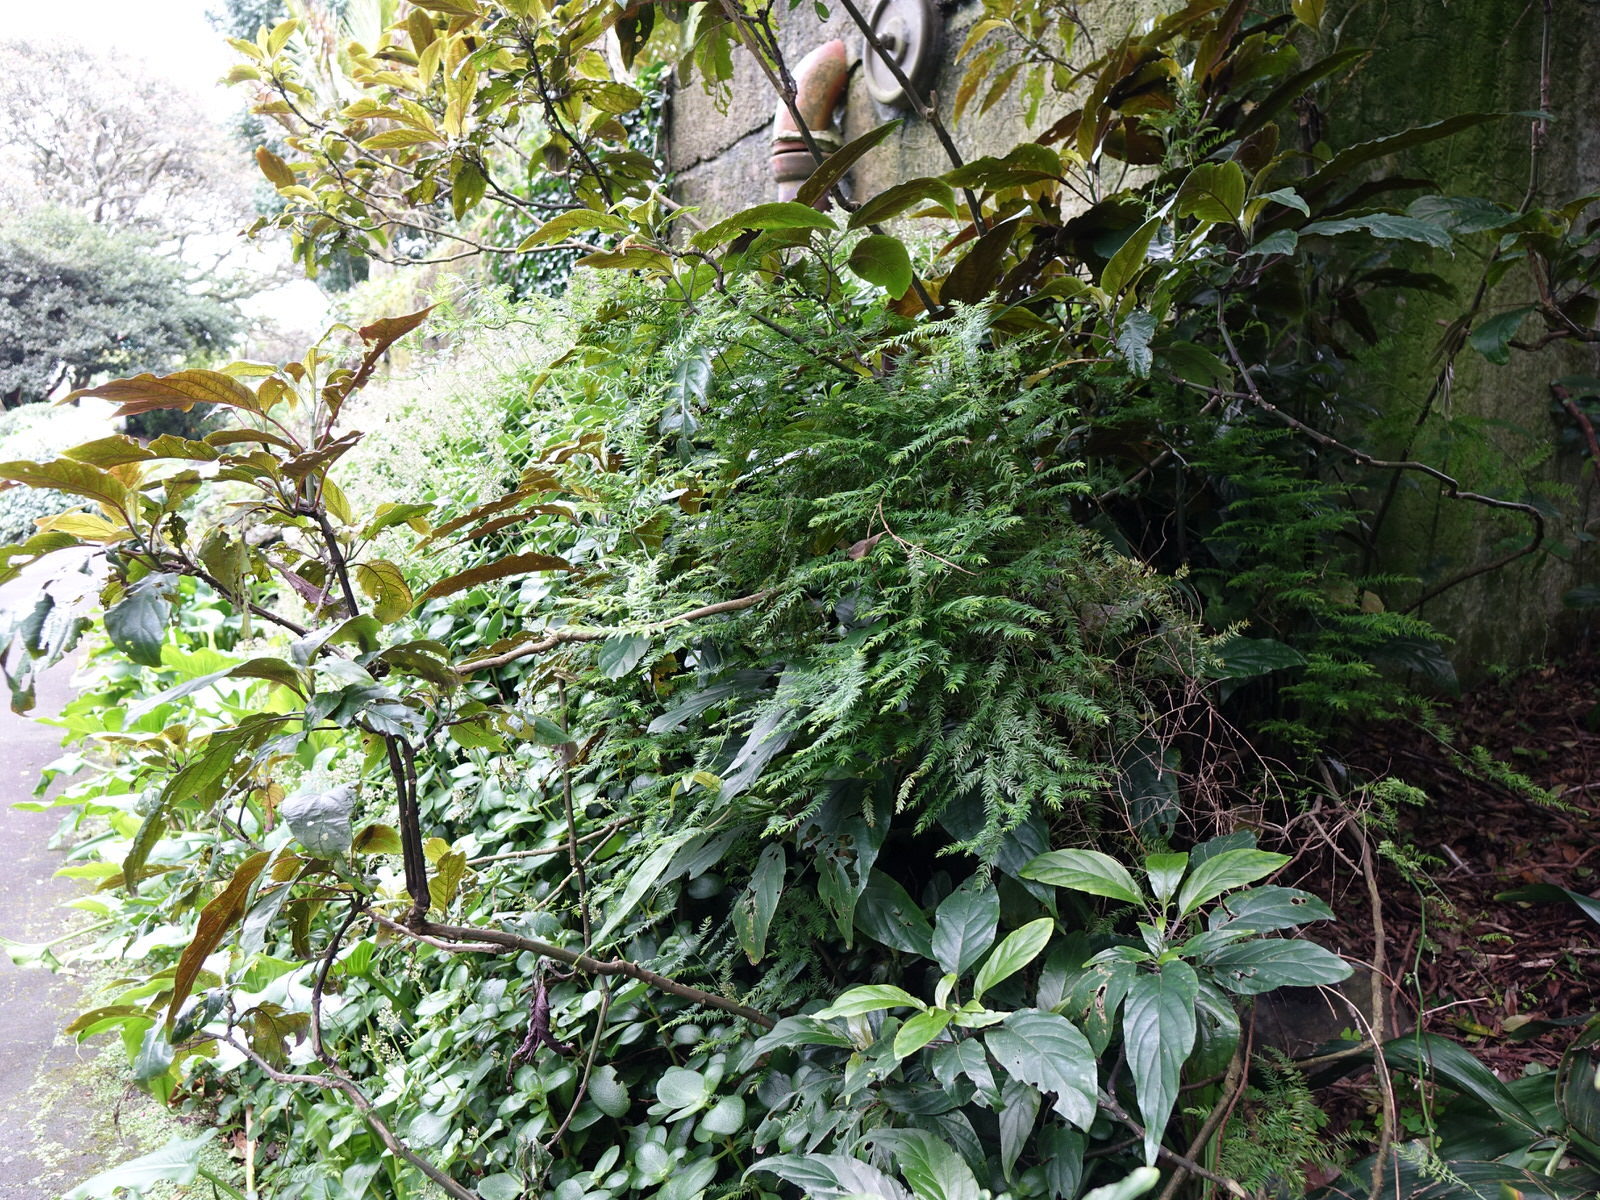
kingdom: Plantae
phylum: Tracheophyta
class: Liliopsida
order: Asparagales
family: Asparagaceae
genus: Asparagus
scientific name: Asparagus scandens
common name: Asparagus-fern
